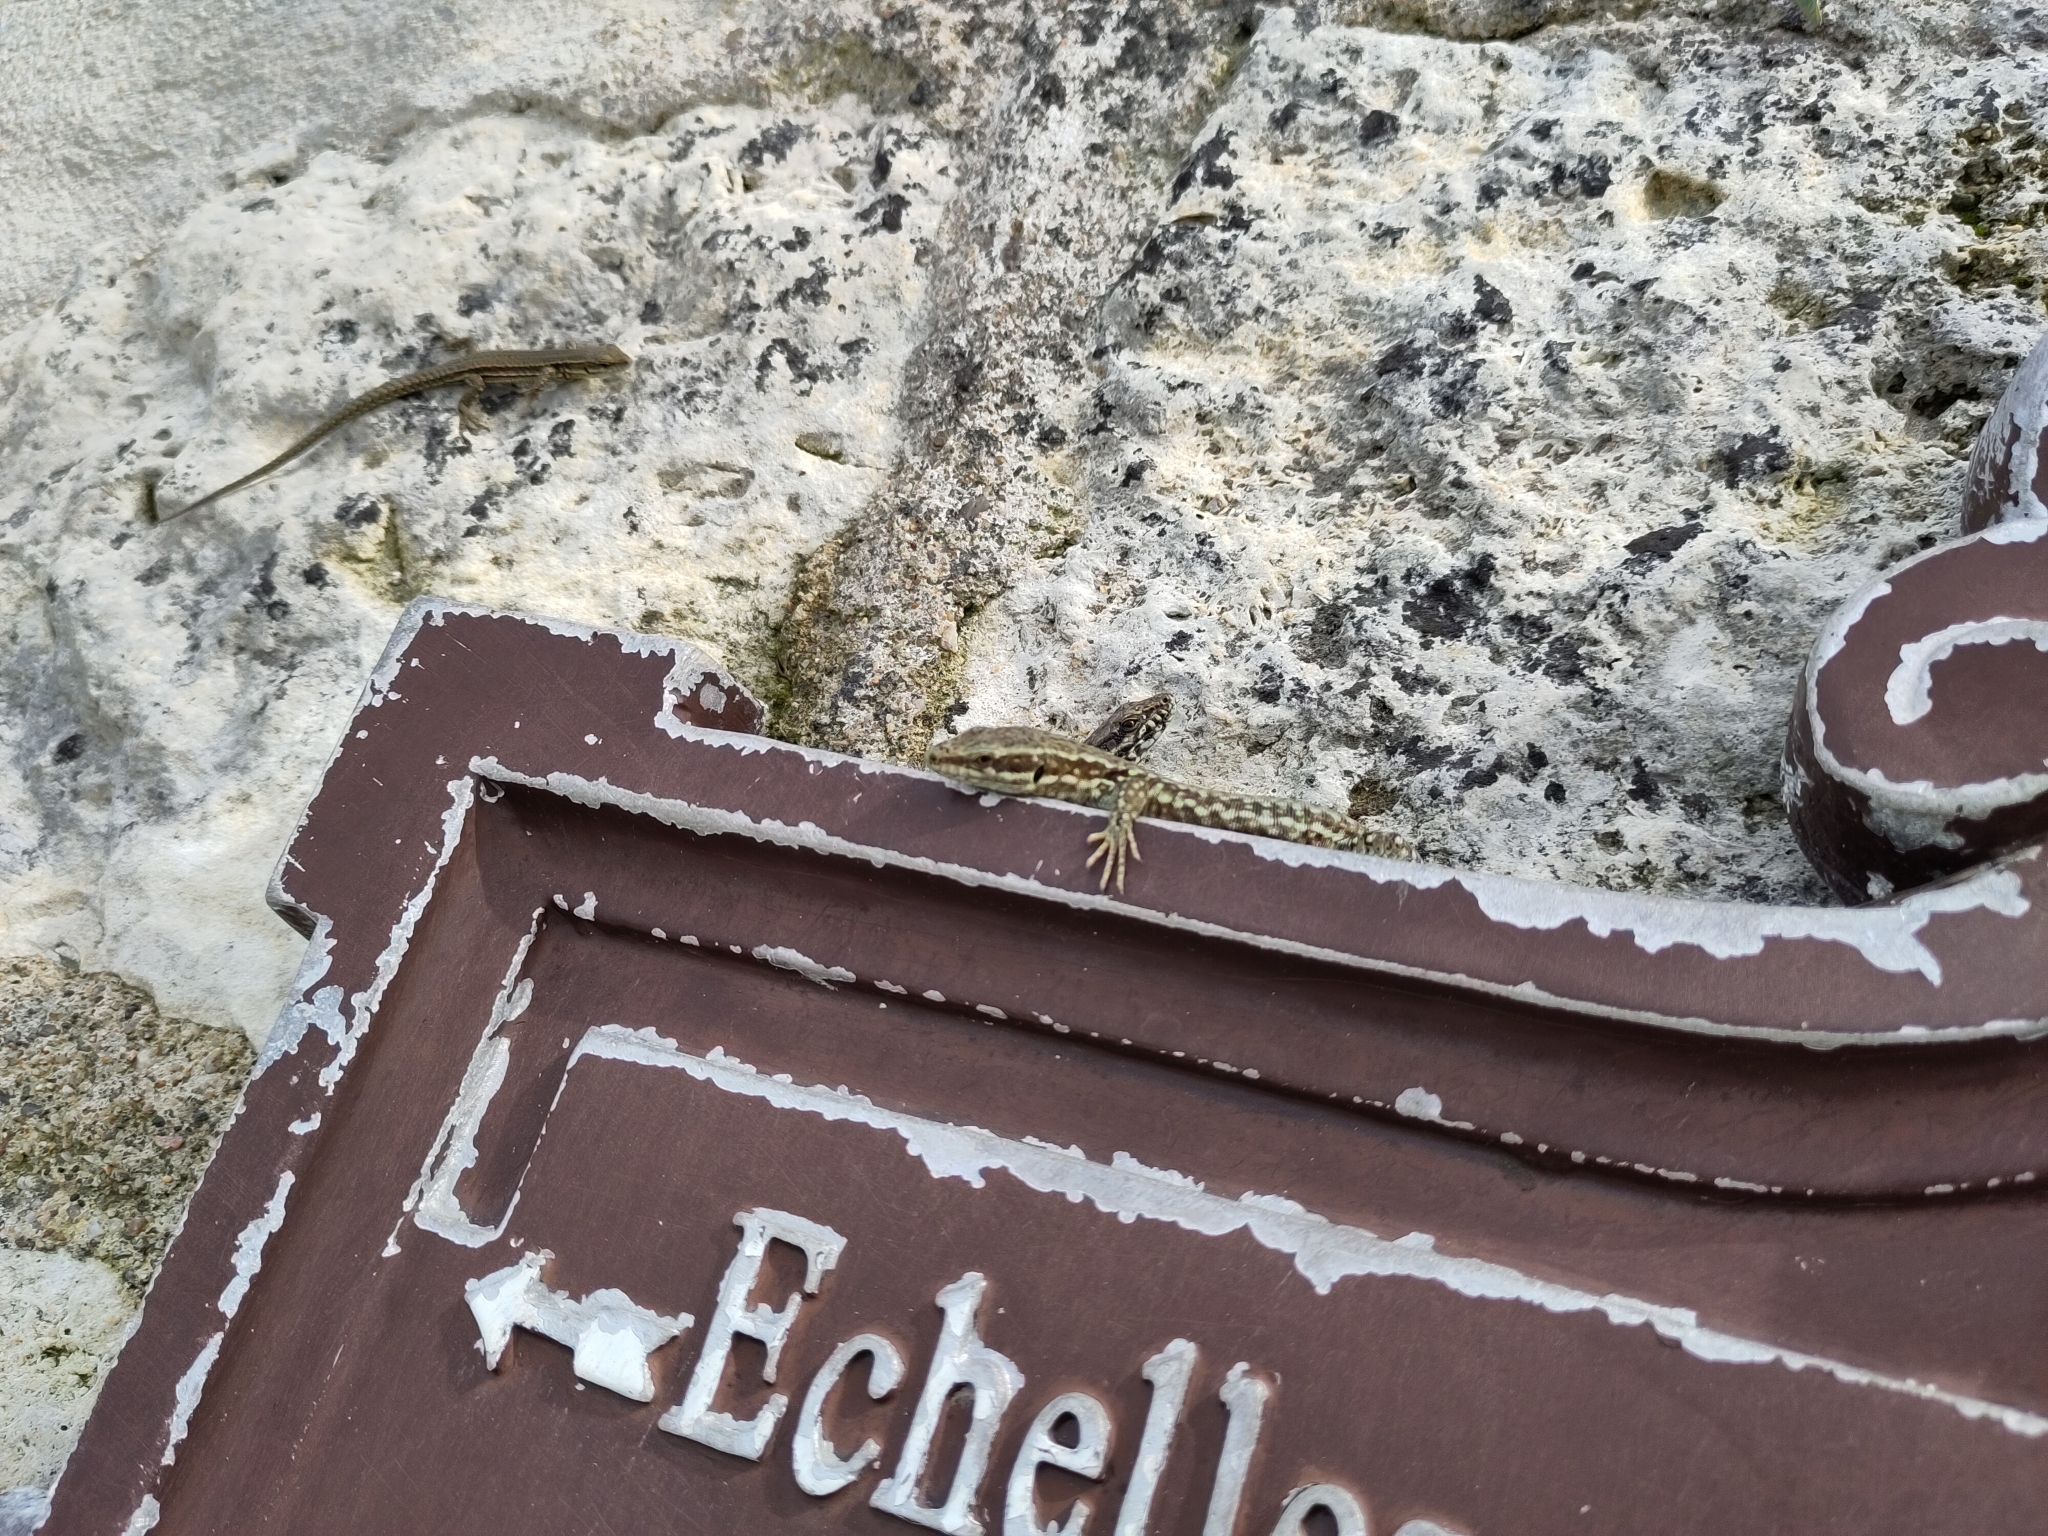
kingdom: Animalia
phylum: Chordata
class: Squamata
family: Lacertidae
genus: Podarcis
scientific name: Podarcis muralis
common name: Common wall lizard
